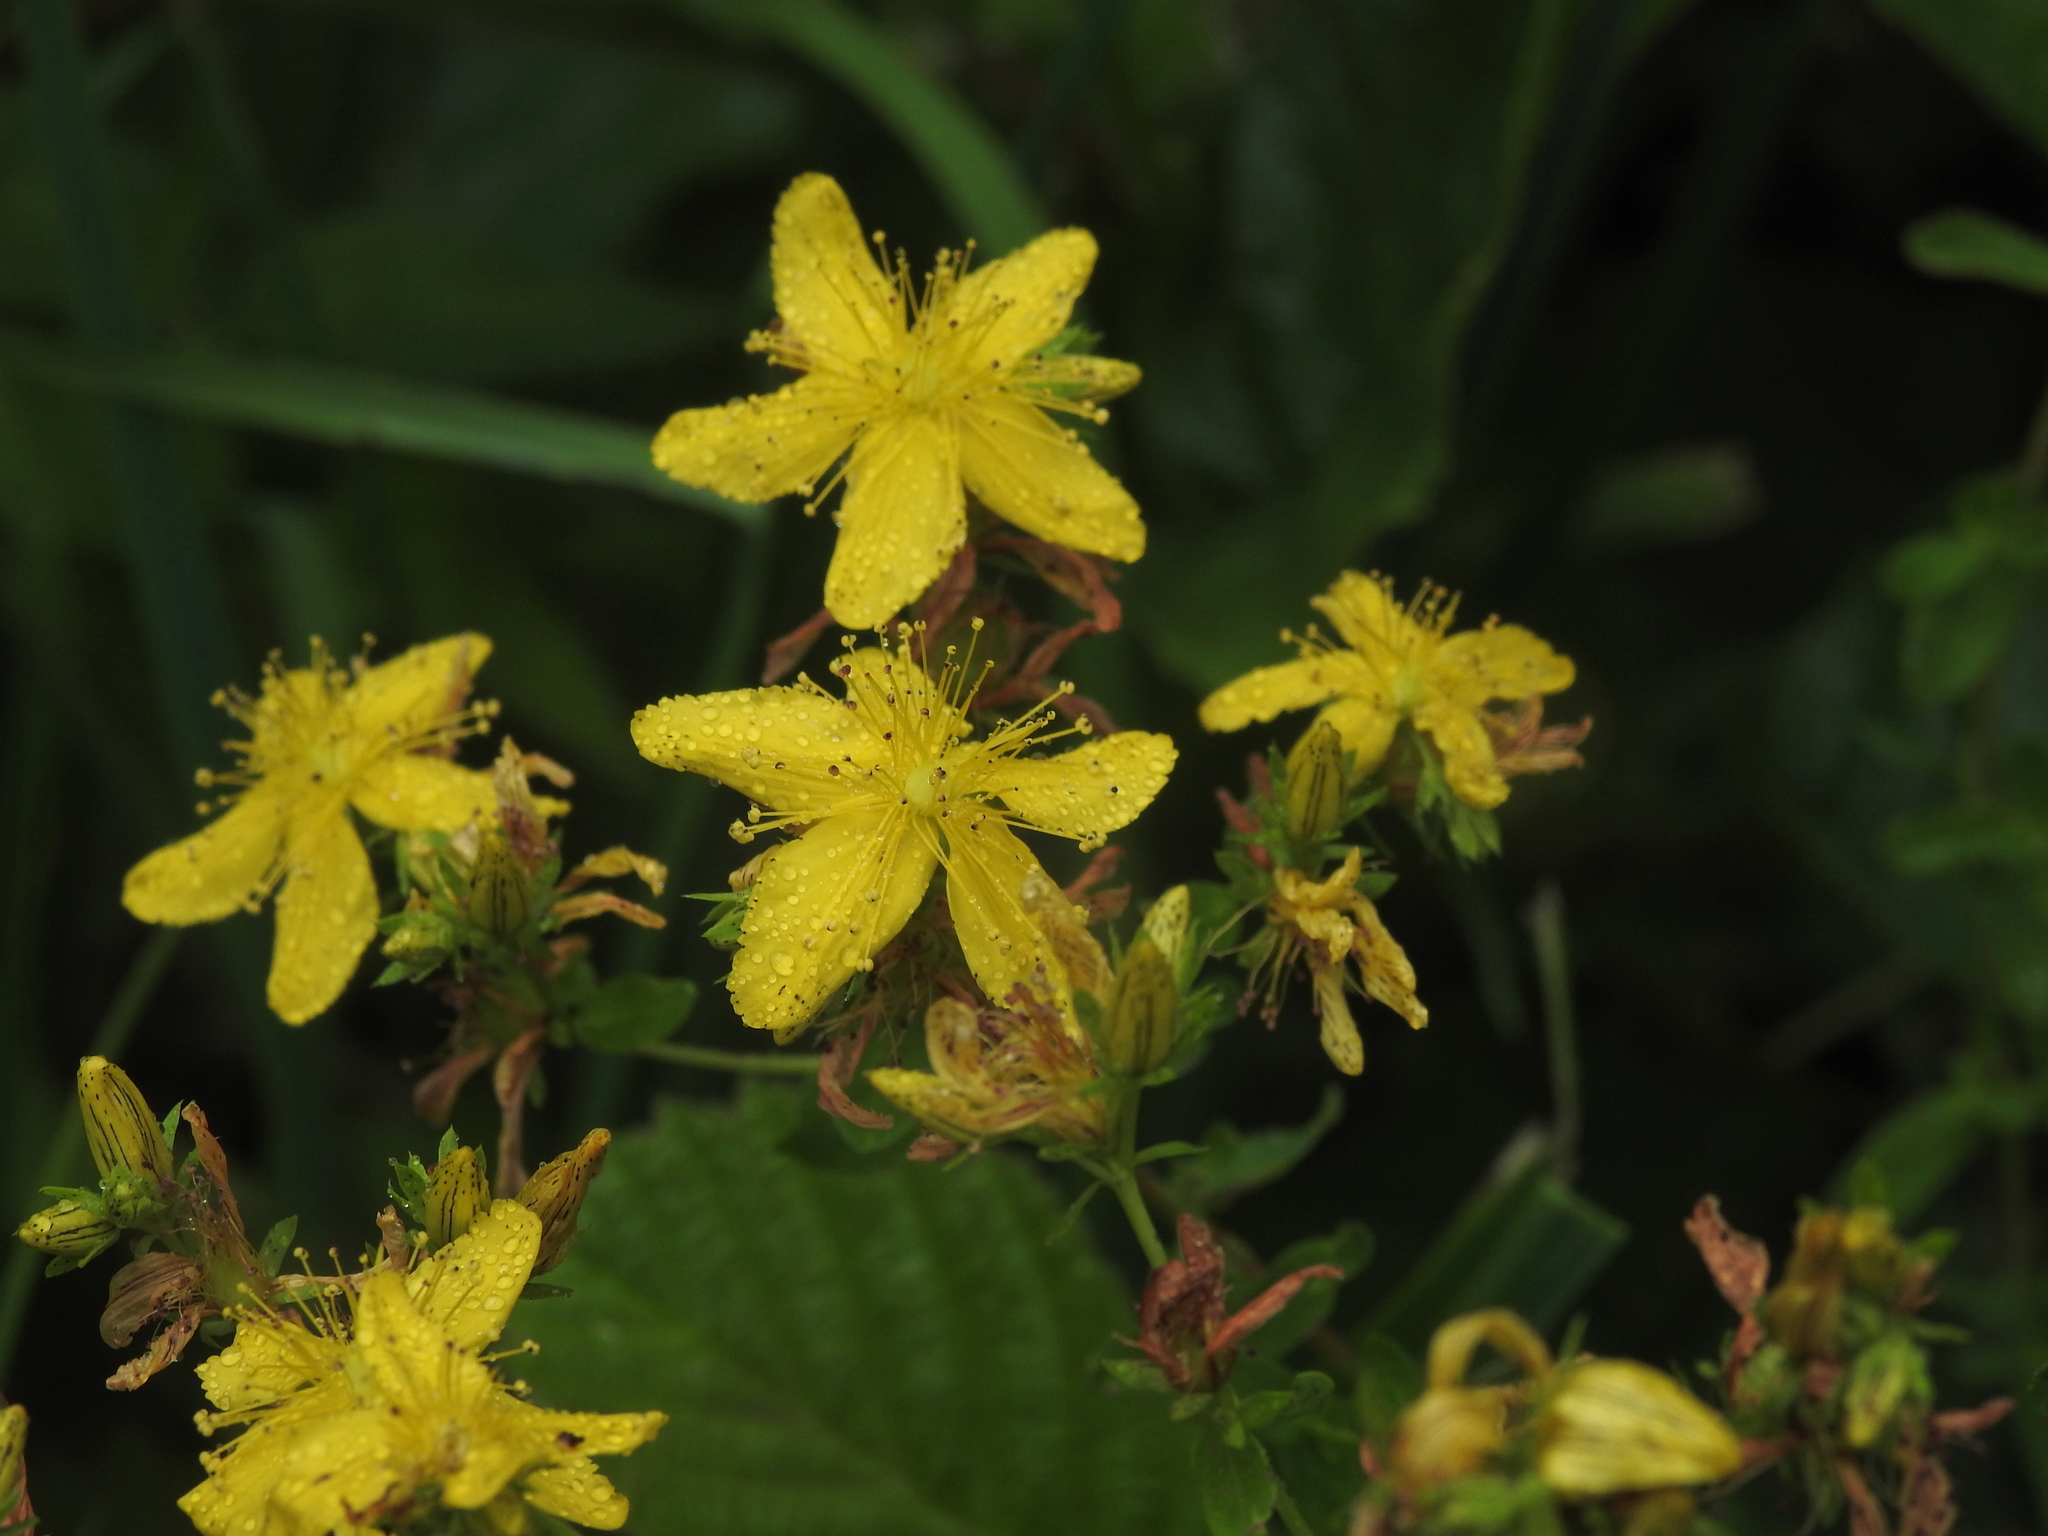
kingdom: Plantae
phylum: Tracheophyta
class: Magnoliopsida
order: Malpighiales
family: Hypericaceae
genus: Hypericum
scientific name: Hypericum perforatum
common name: Common st. johnswort
